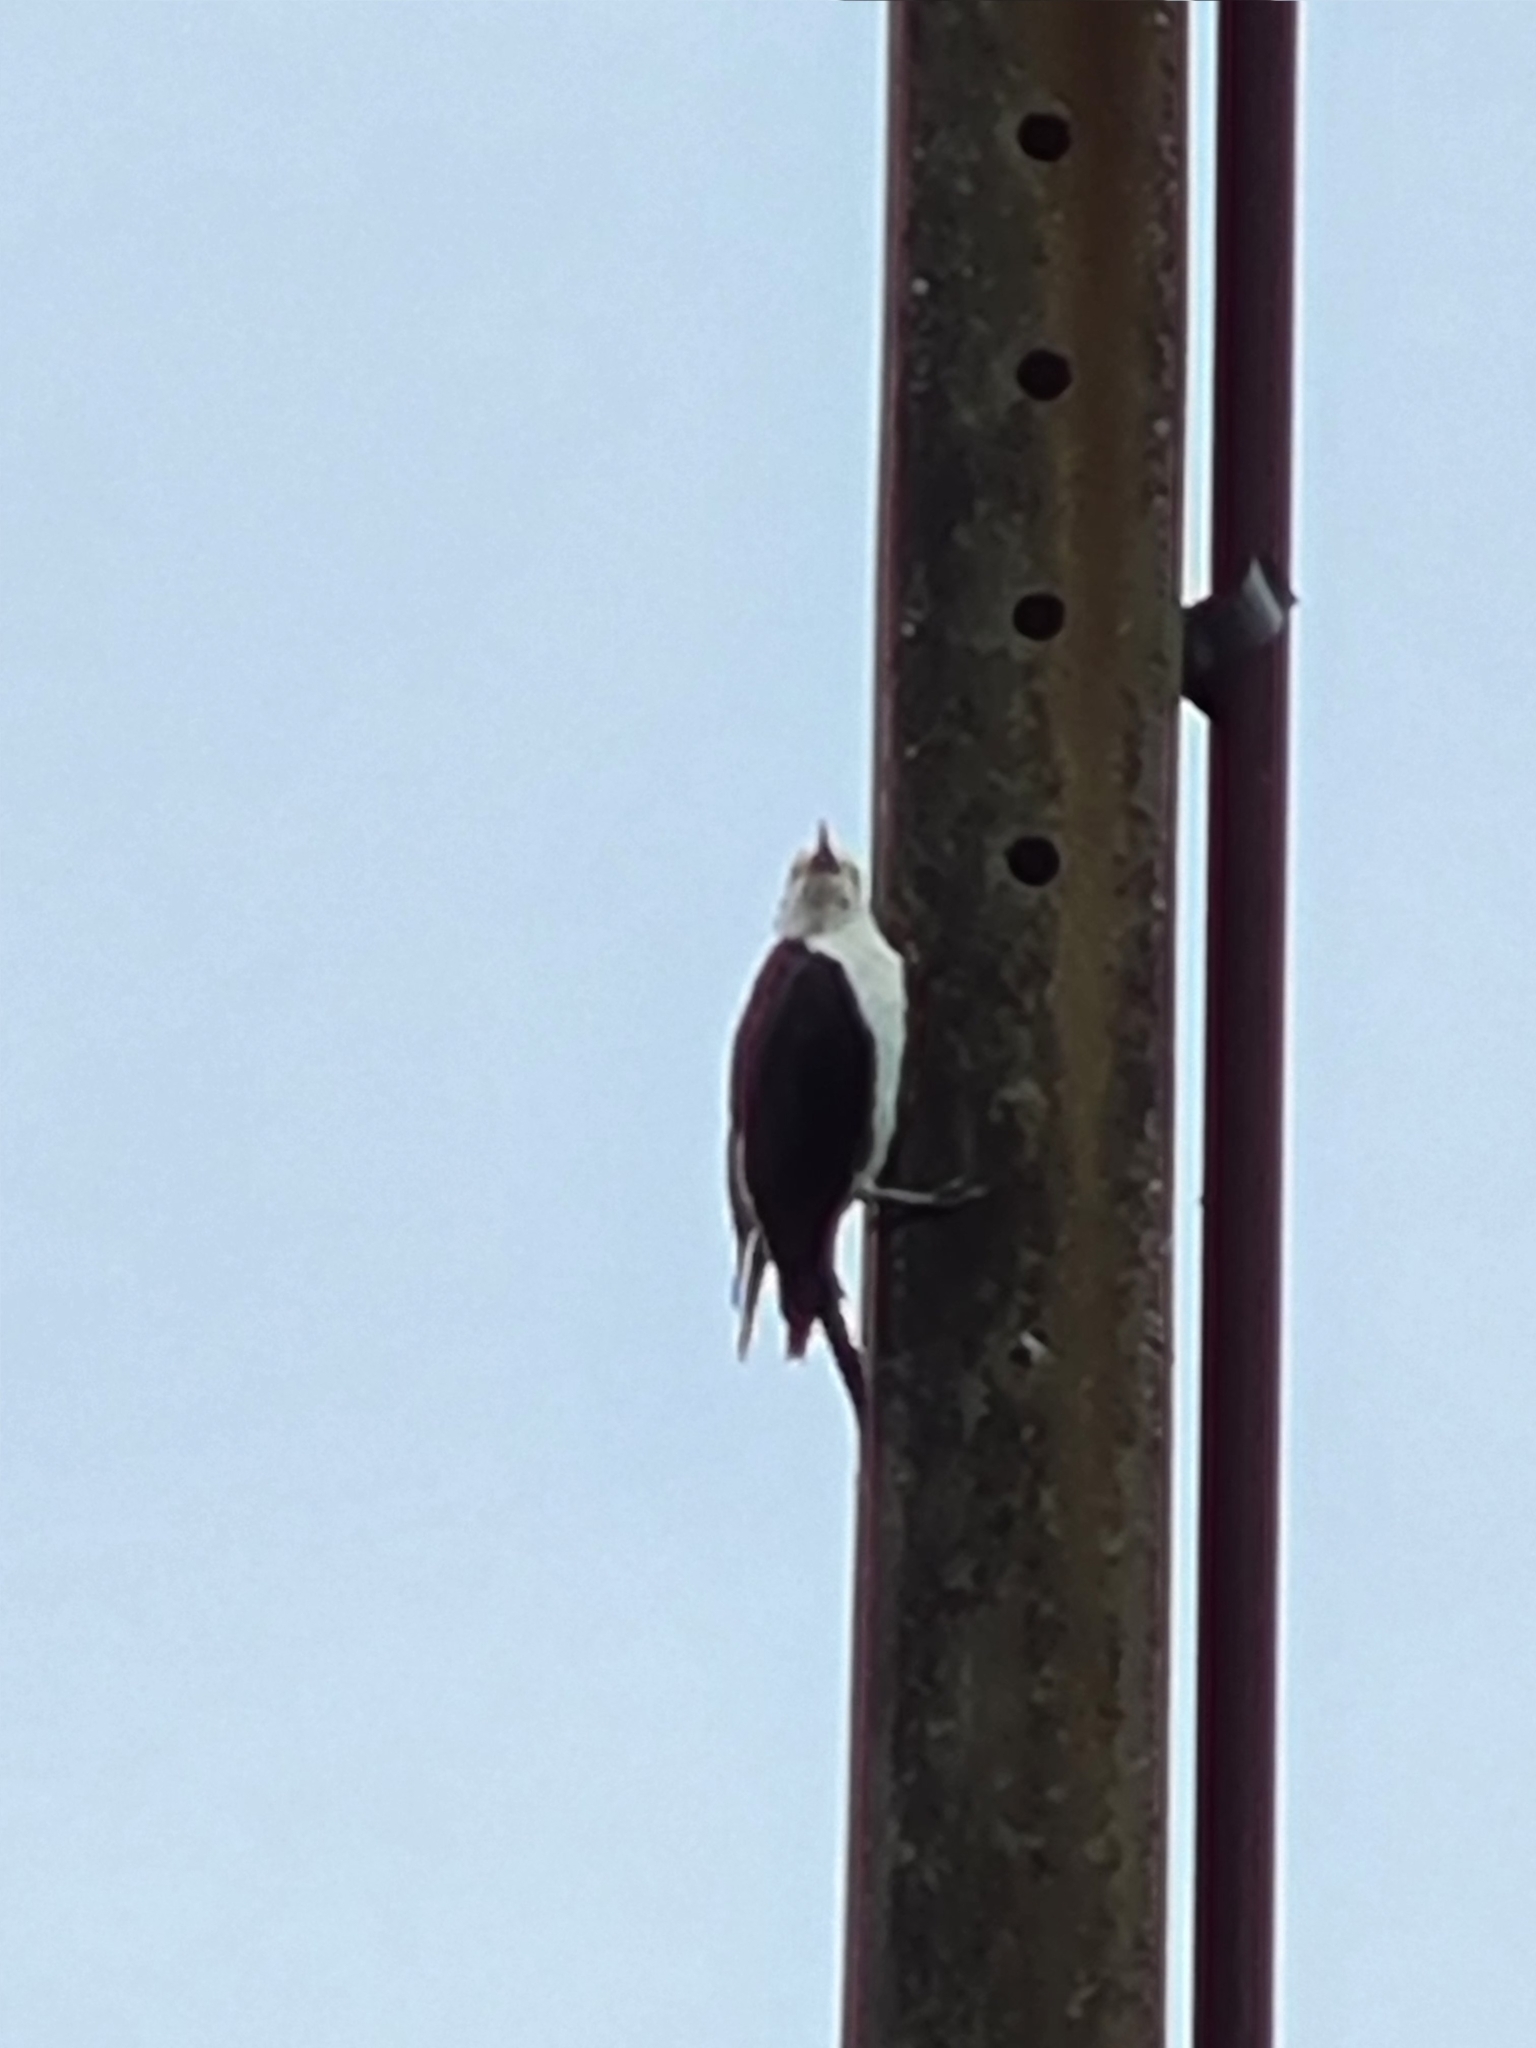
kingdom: Animalia
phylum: Chordata
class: Aves
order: Piciformes
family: Picidae
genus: Melanerpes
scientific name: Melanerpes candidus
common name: White woodpecker
